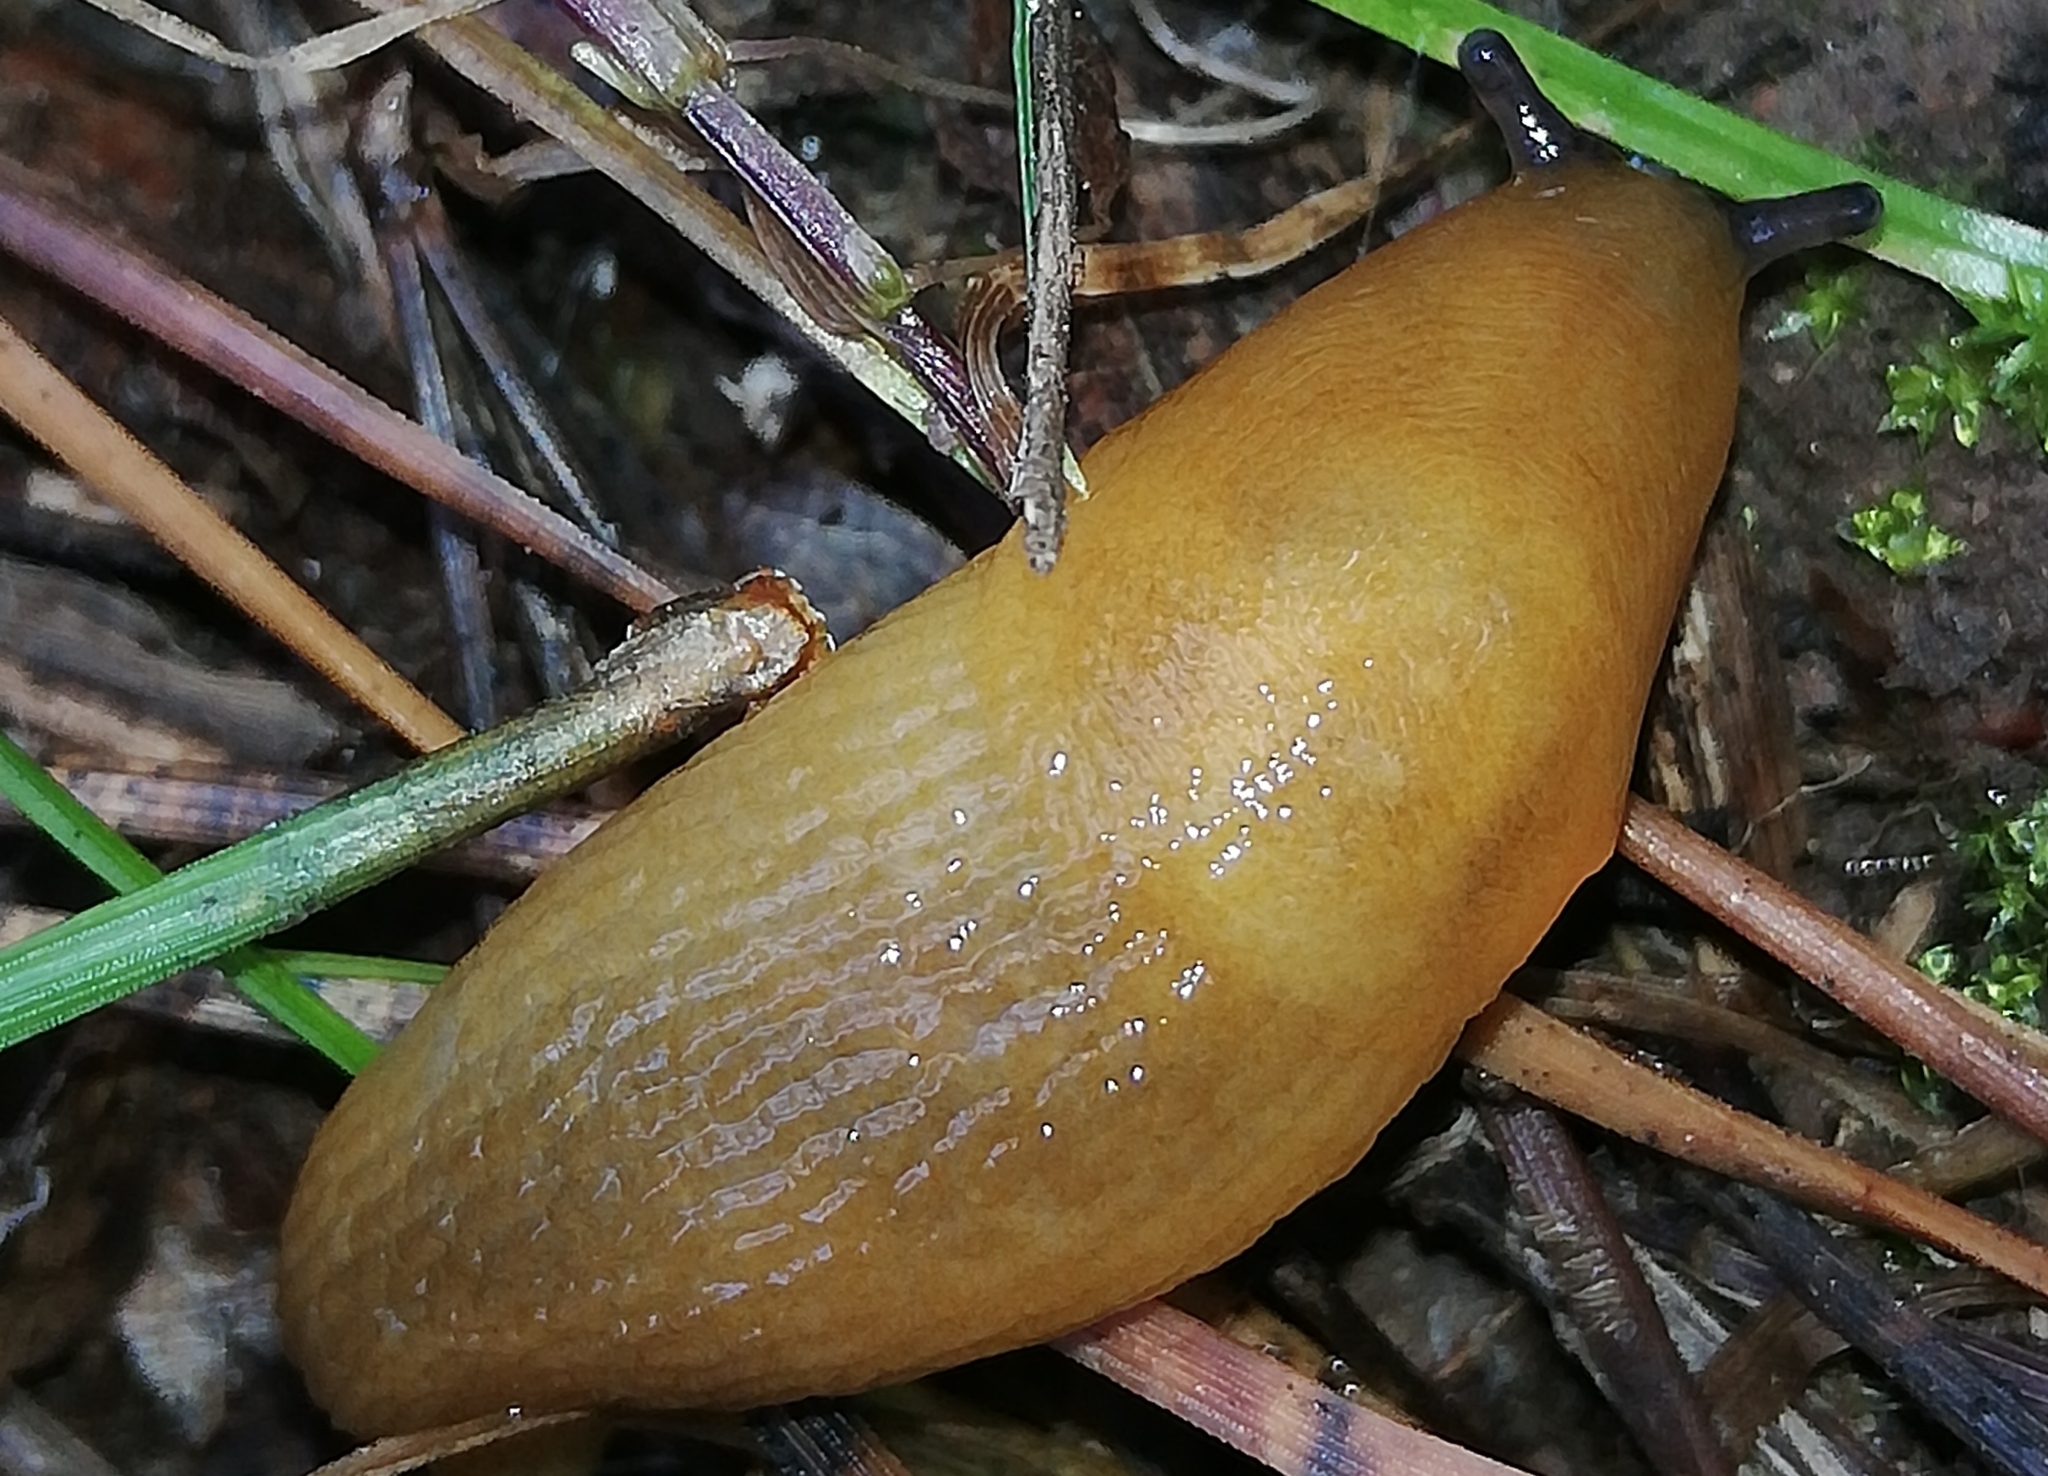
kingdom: Animalia
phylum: Mollusca
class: Gastropoda
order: Stylommatophora
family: Limacidae
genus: Malacolimax
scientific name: Malacolimax tenellus
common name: Lemon slug
